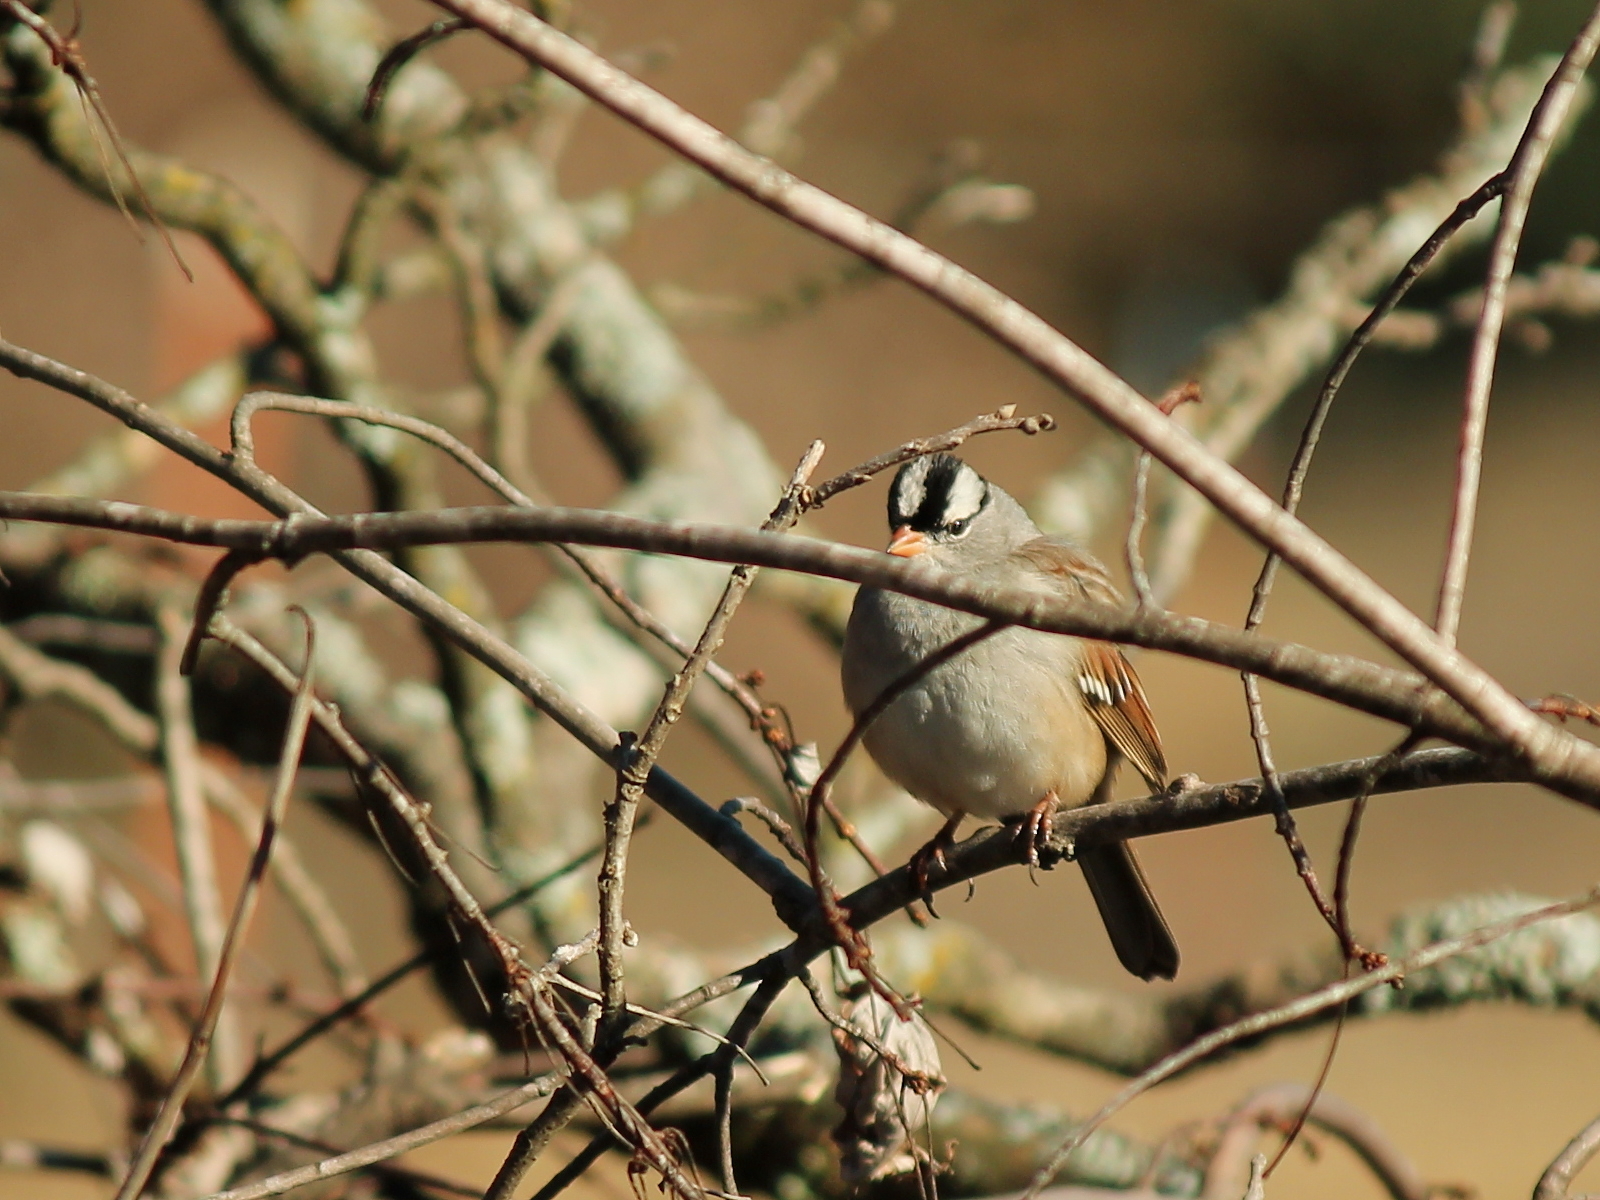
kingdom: Animalia
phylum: Chordata
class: Aves
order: Passeriformes
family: Passerellidae
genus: Zonotrichia
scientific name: Zonotrichia leucophrys
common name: White-crowned sparrow
